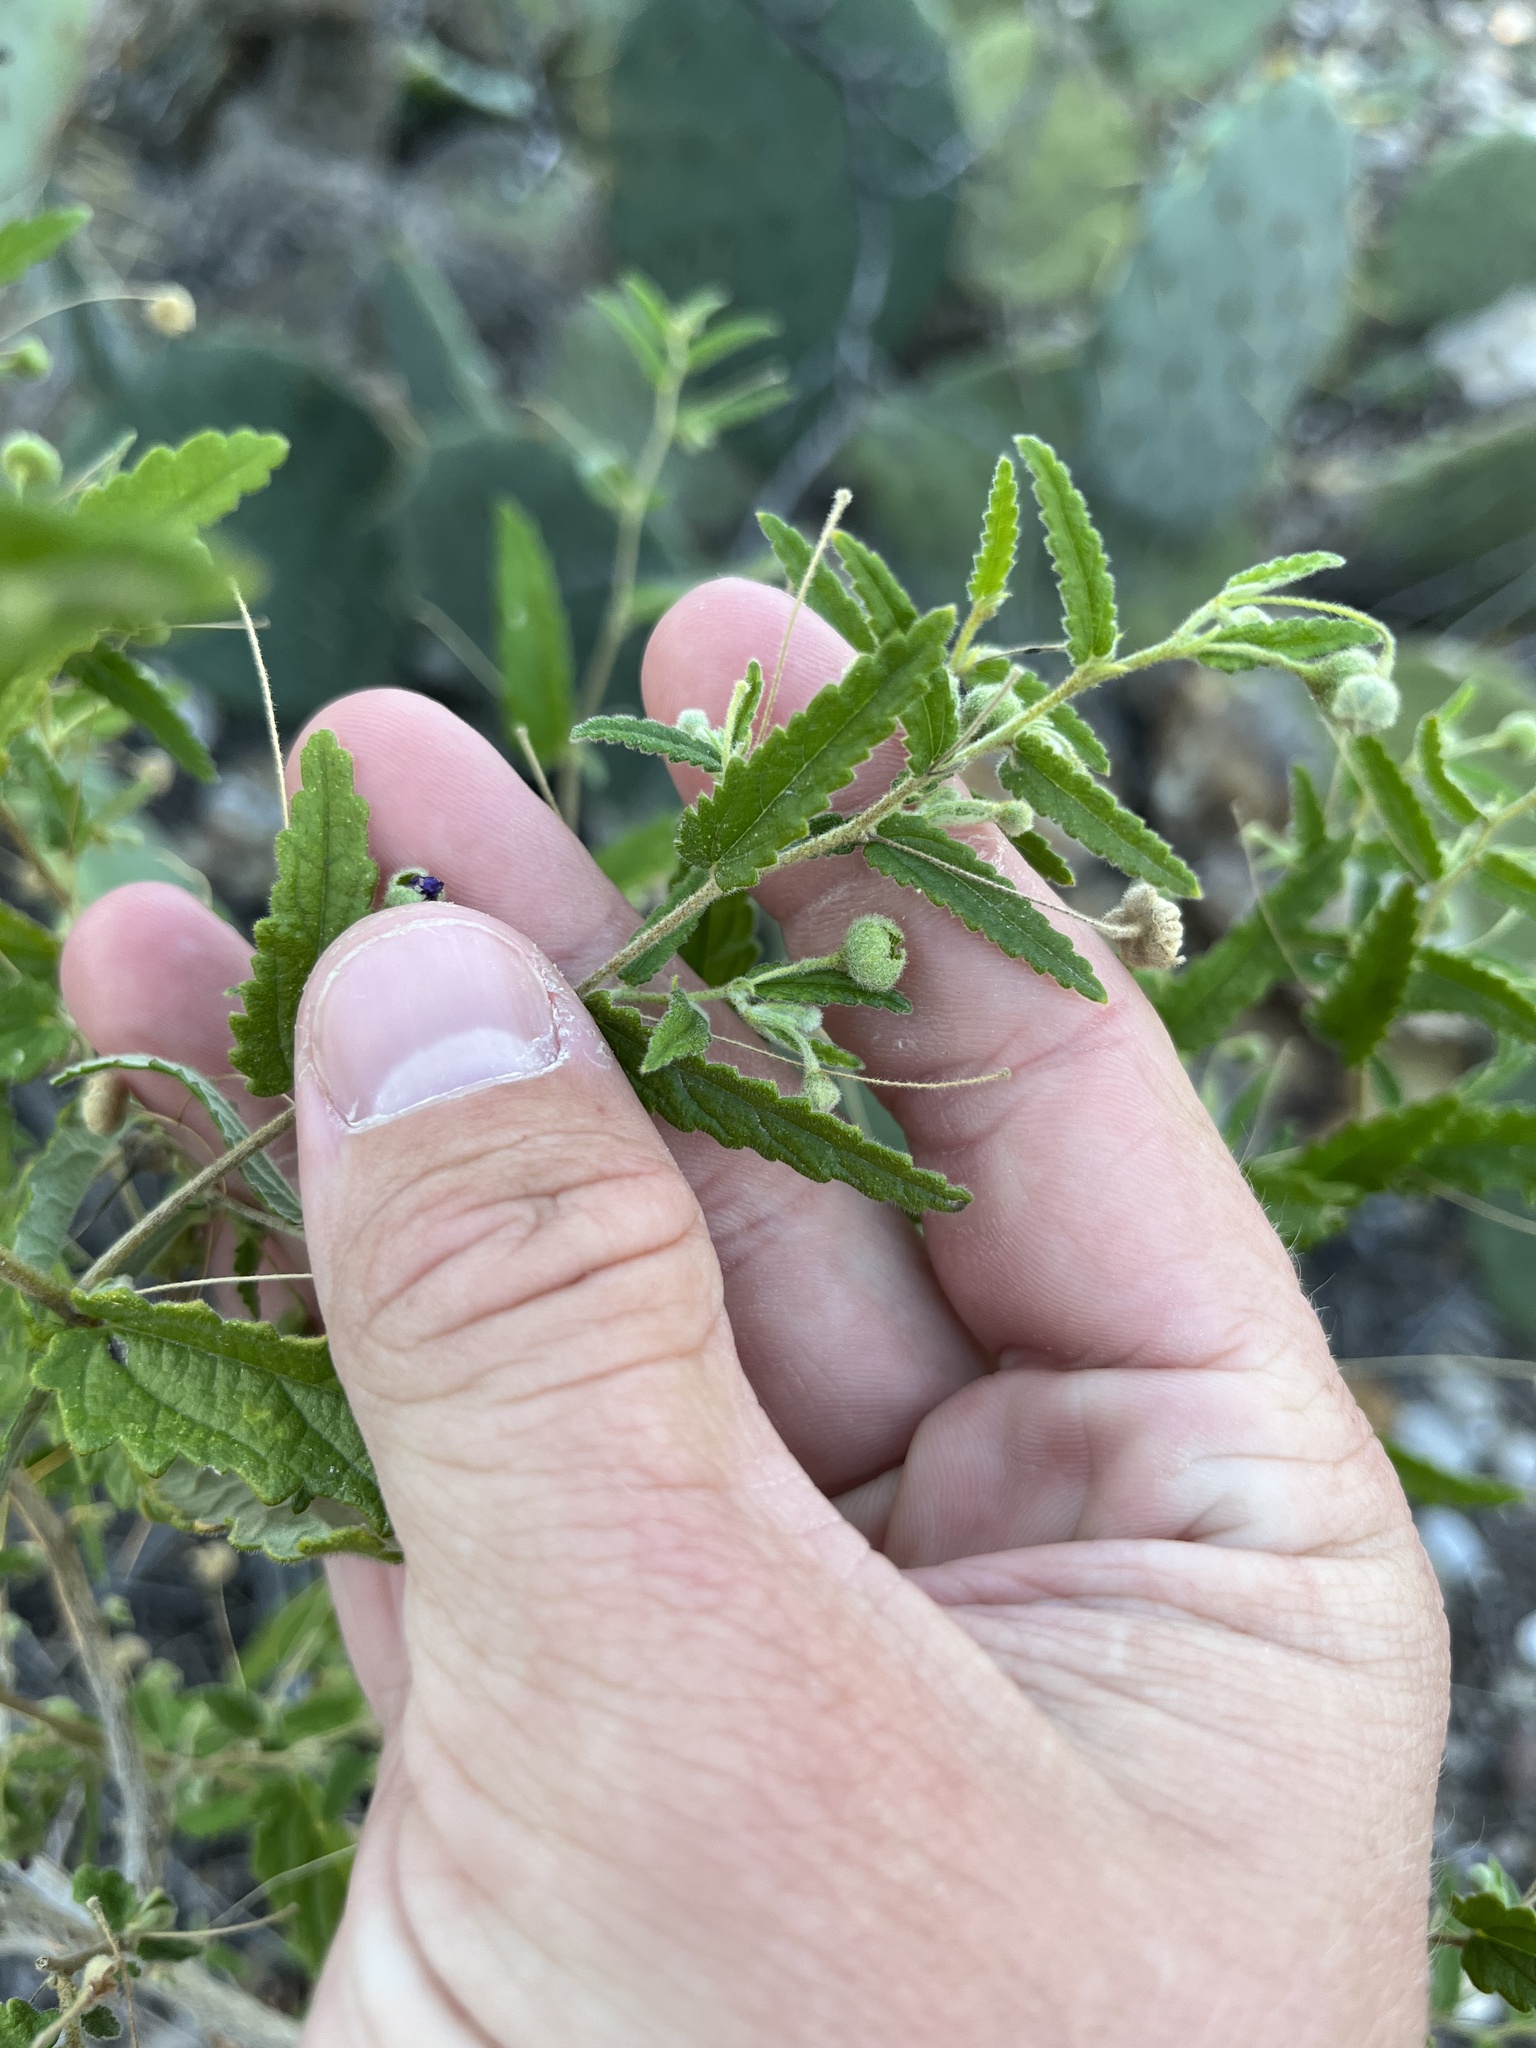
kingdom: Plantae
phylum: Tracheophyta
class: Magnoliopsida
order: Malvales
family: Malvaceae
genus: Meximalva
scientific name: Meximalva filipes
